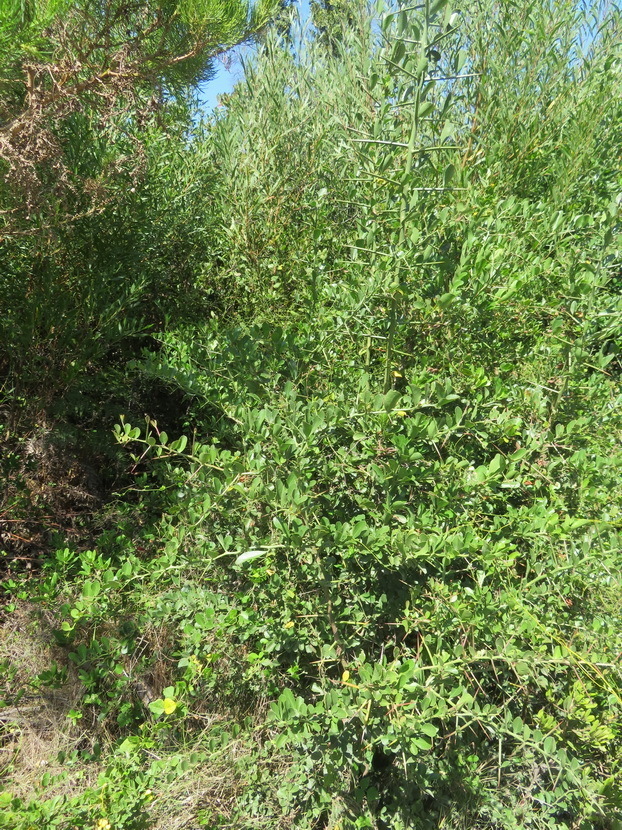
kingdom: Plantae
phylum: Tracheophyta
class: Magnoliopsida
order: Celastrales
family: Celastraceae
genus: Gymnosporia
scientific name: Gymnosporia nemorosa
